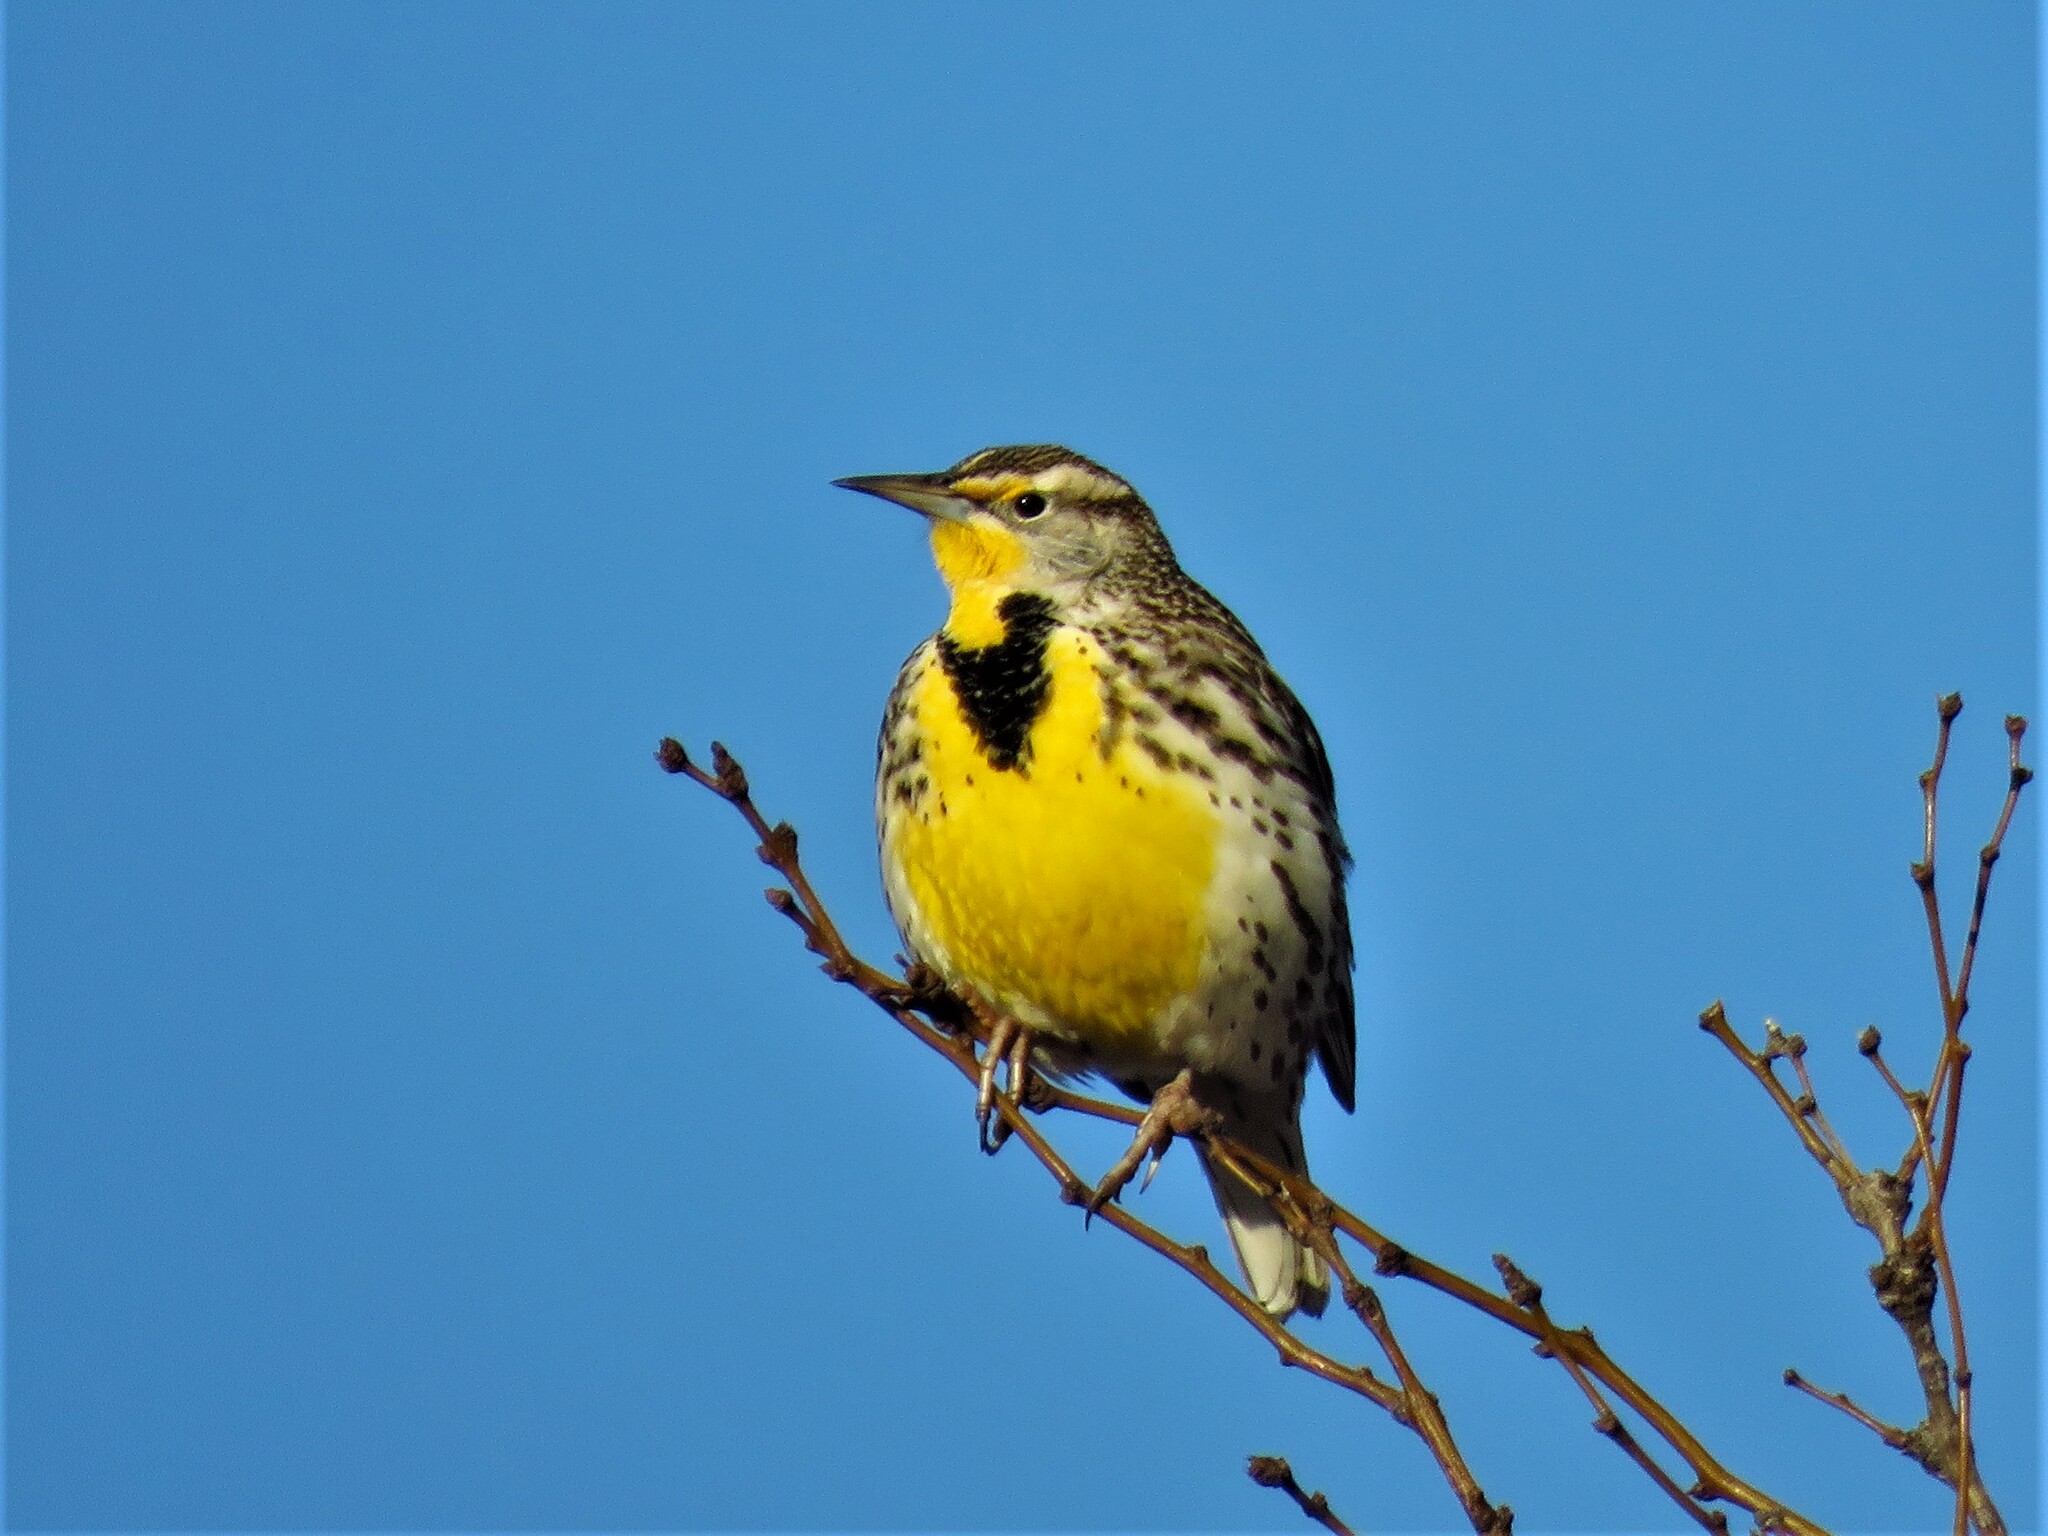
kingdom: Animalia
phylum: Chordata
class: Aves
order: Passeriformes
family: Icteridae
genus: Sturnella
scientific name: Sturnella neglecta
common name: Western meadowlark
